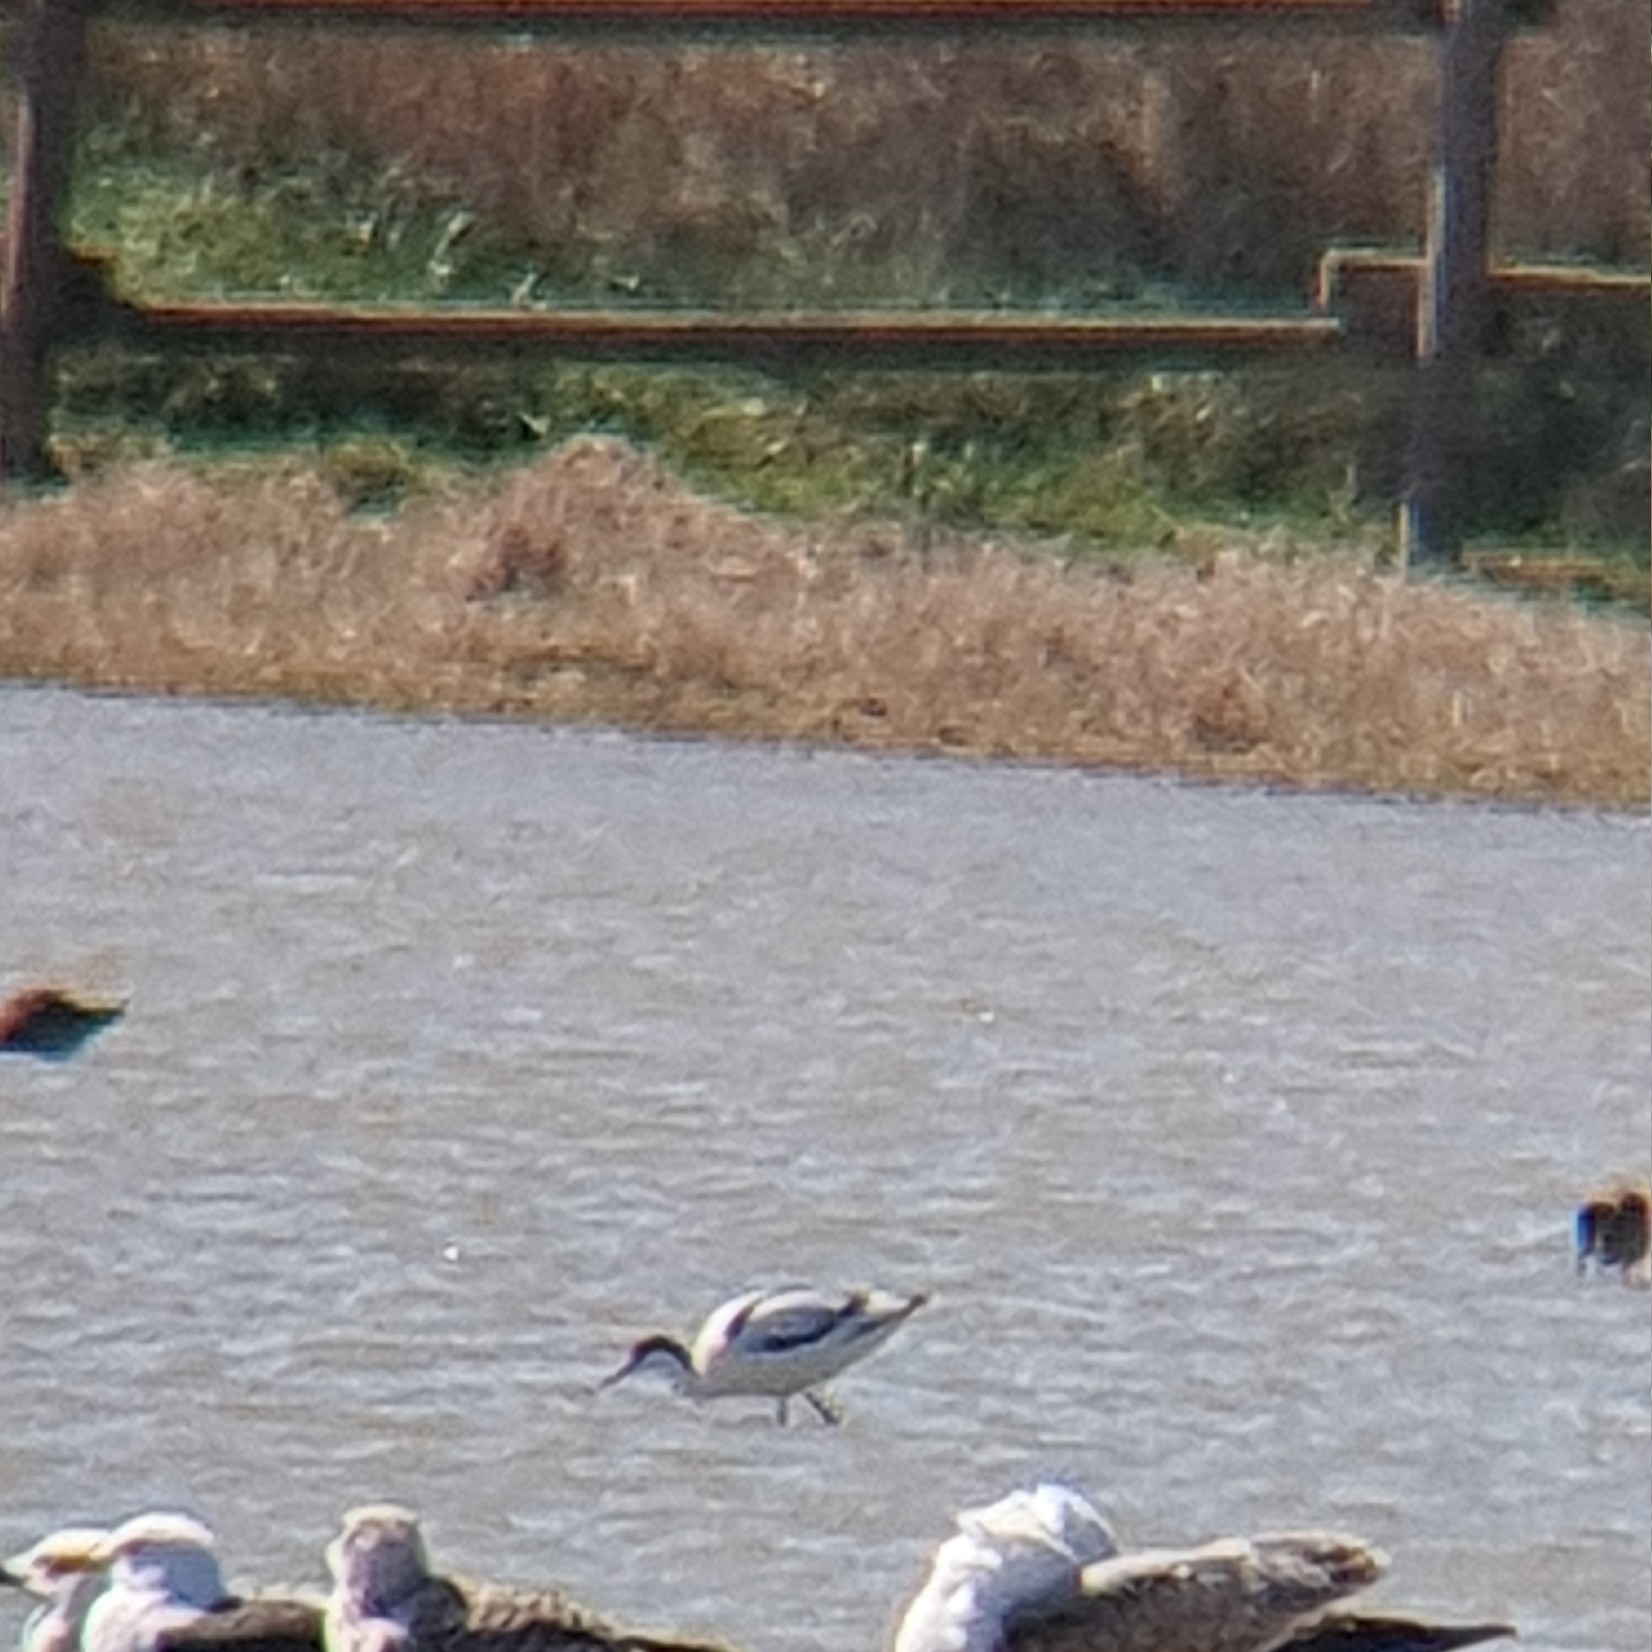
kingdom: Animalia
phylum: Chordata
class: Aves
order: Charadriiformes
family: Recurvirostridae
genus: Recurvirostra
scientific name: Recurvirostra avosetta
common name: Pied avocet
